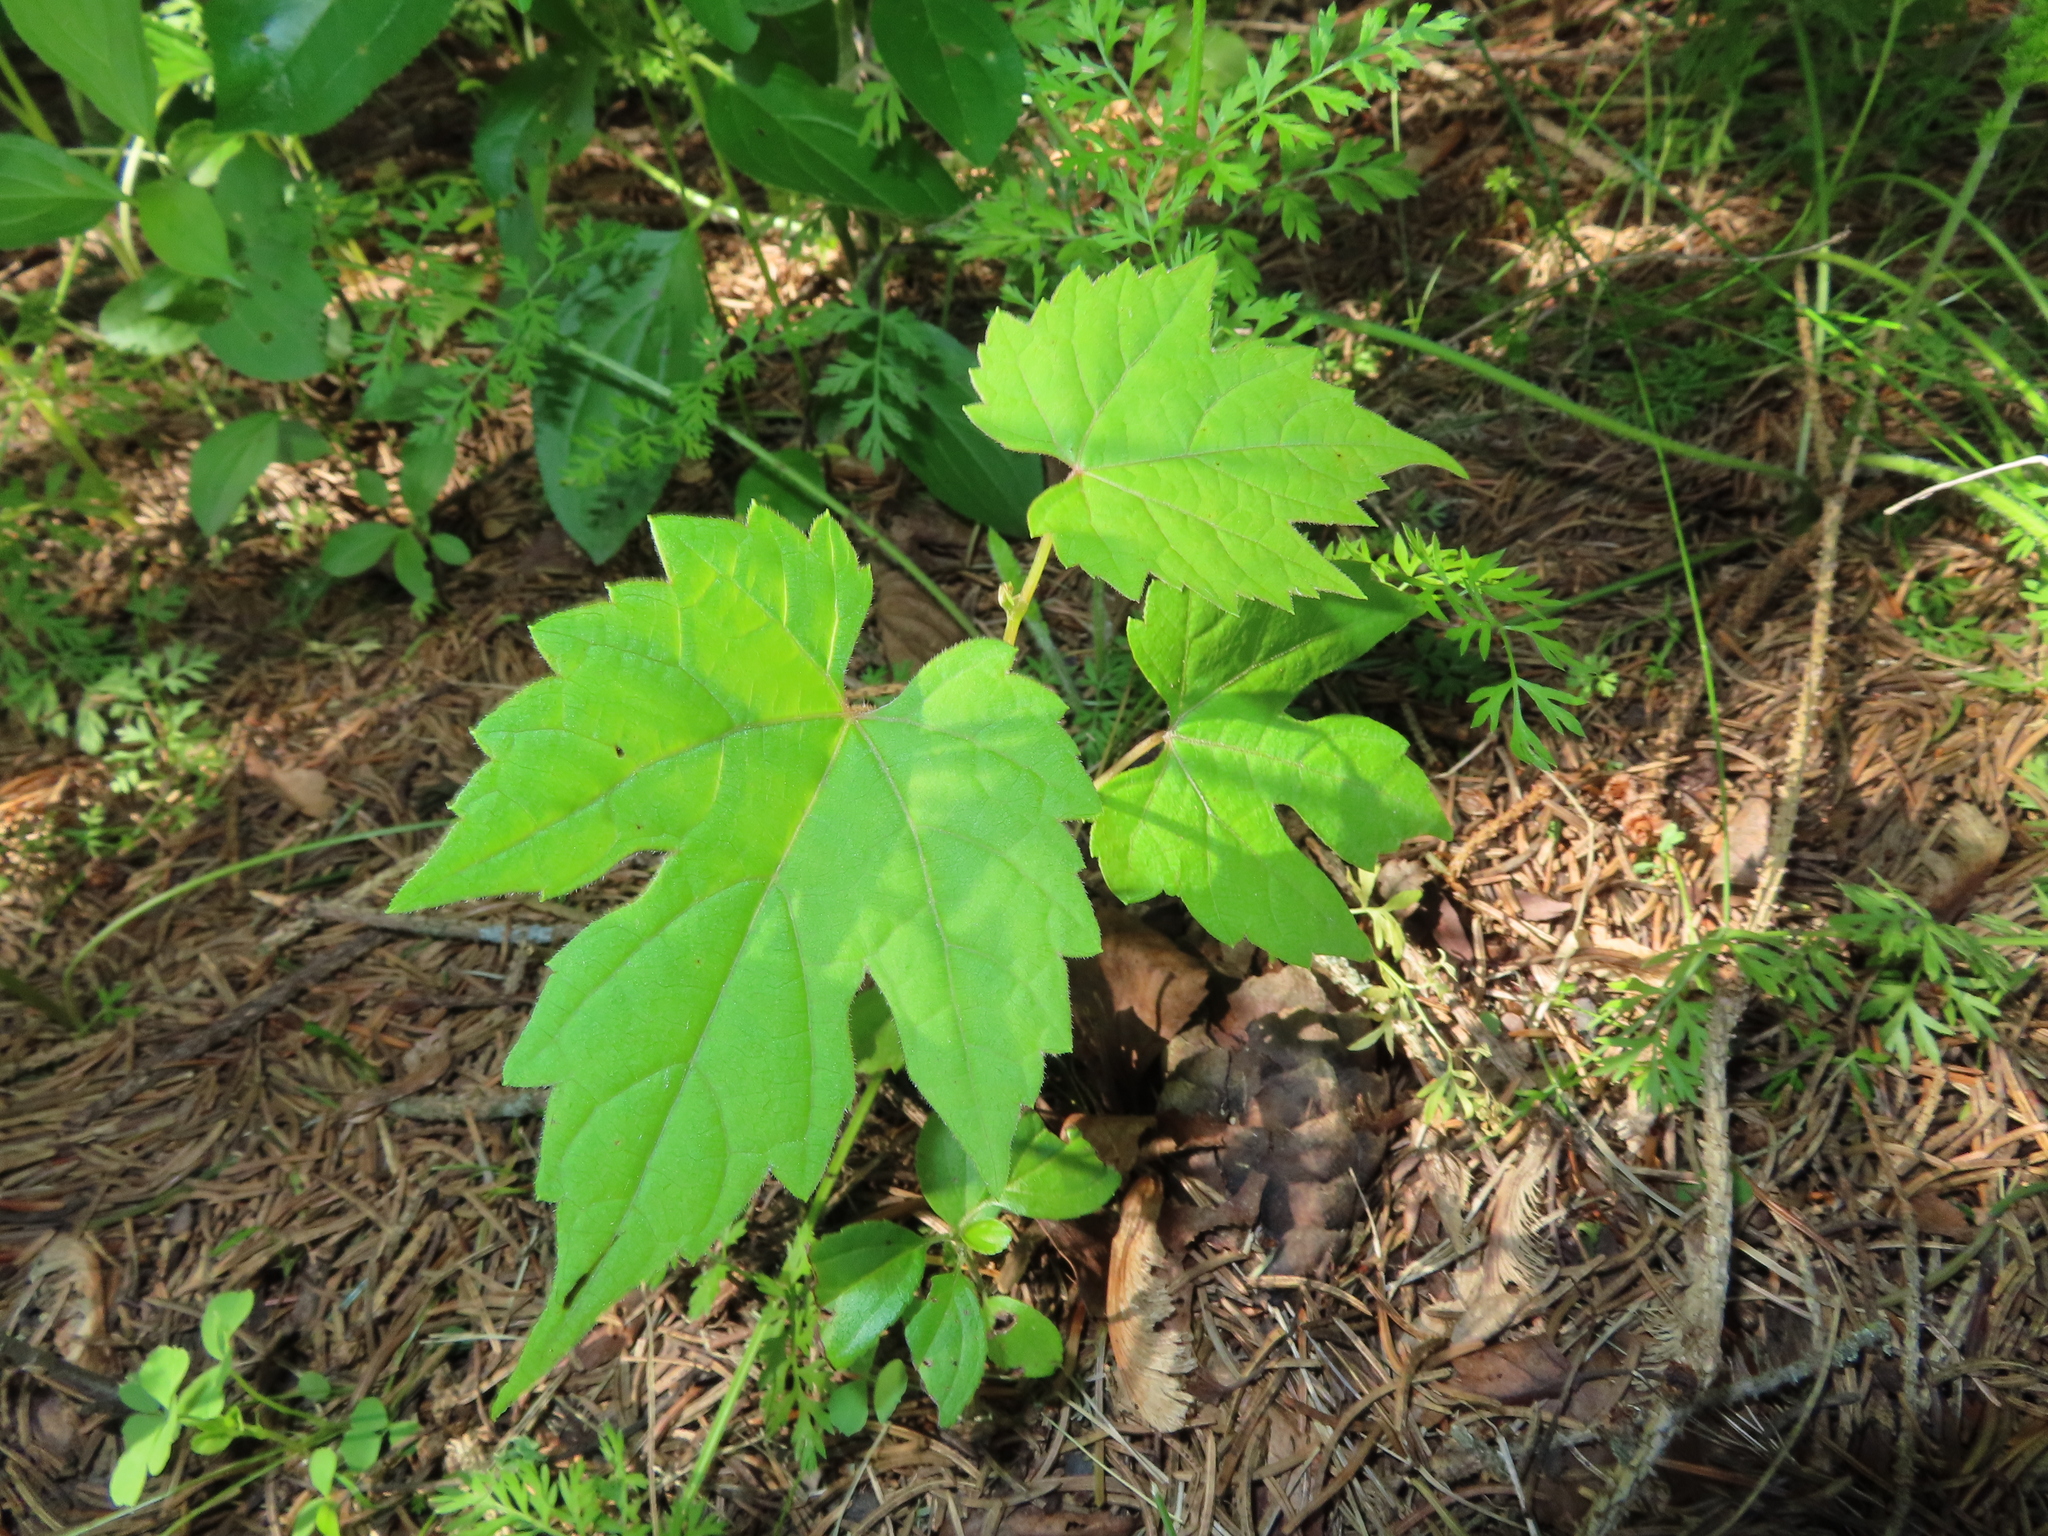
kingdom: Plantae
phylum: Tracheophyta
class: Magnoliopsida
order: Vitales
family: Vitaceae
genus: Vitis
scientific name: Vitis riparia
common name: Frost grape
